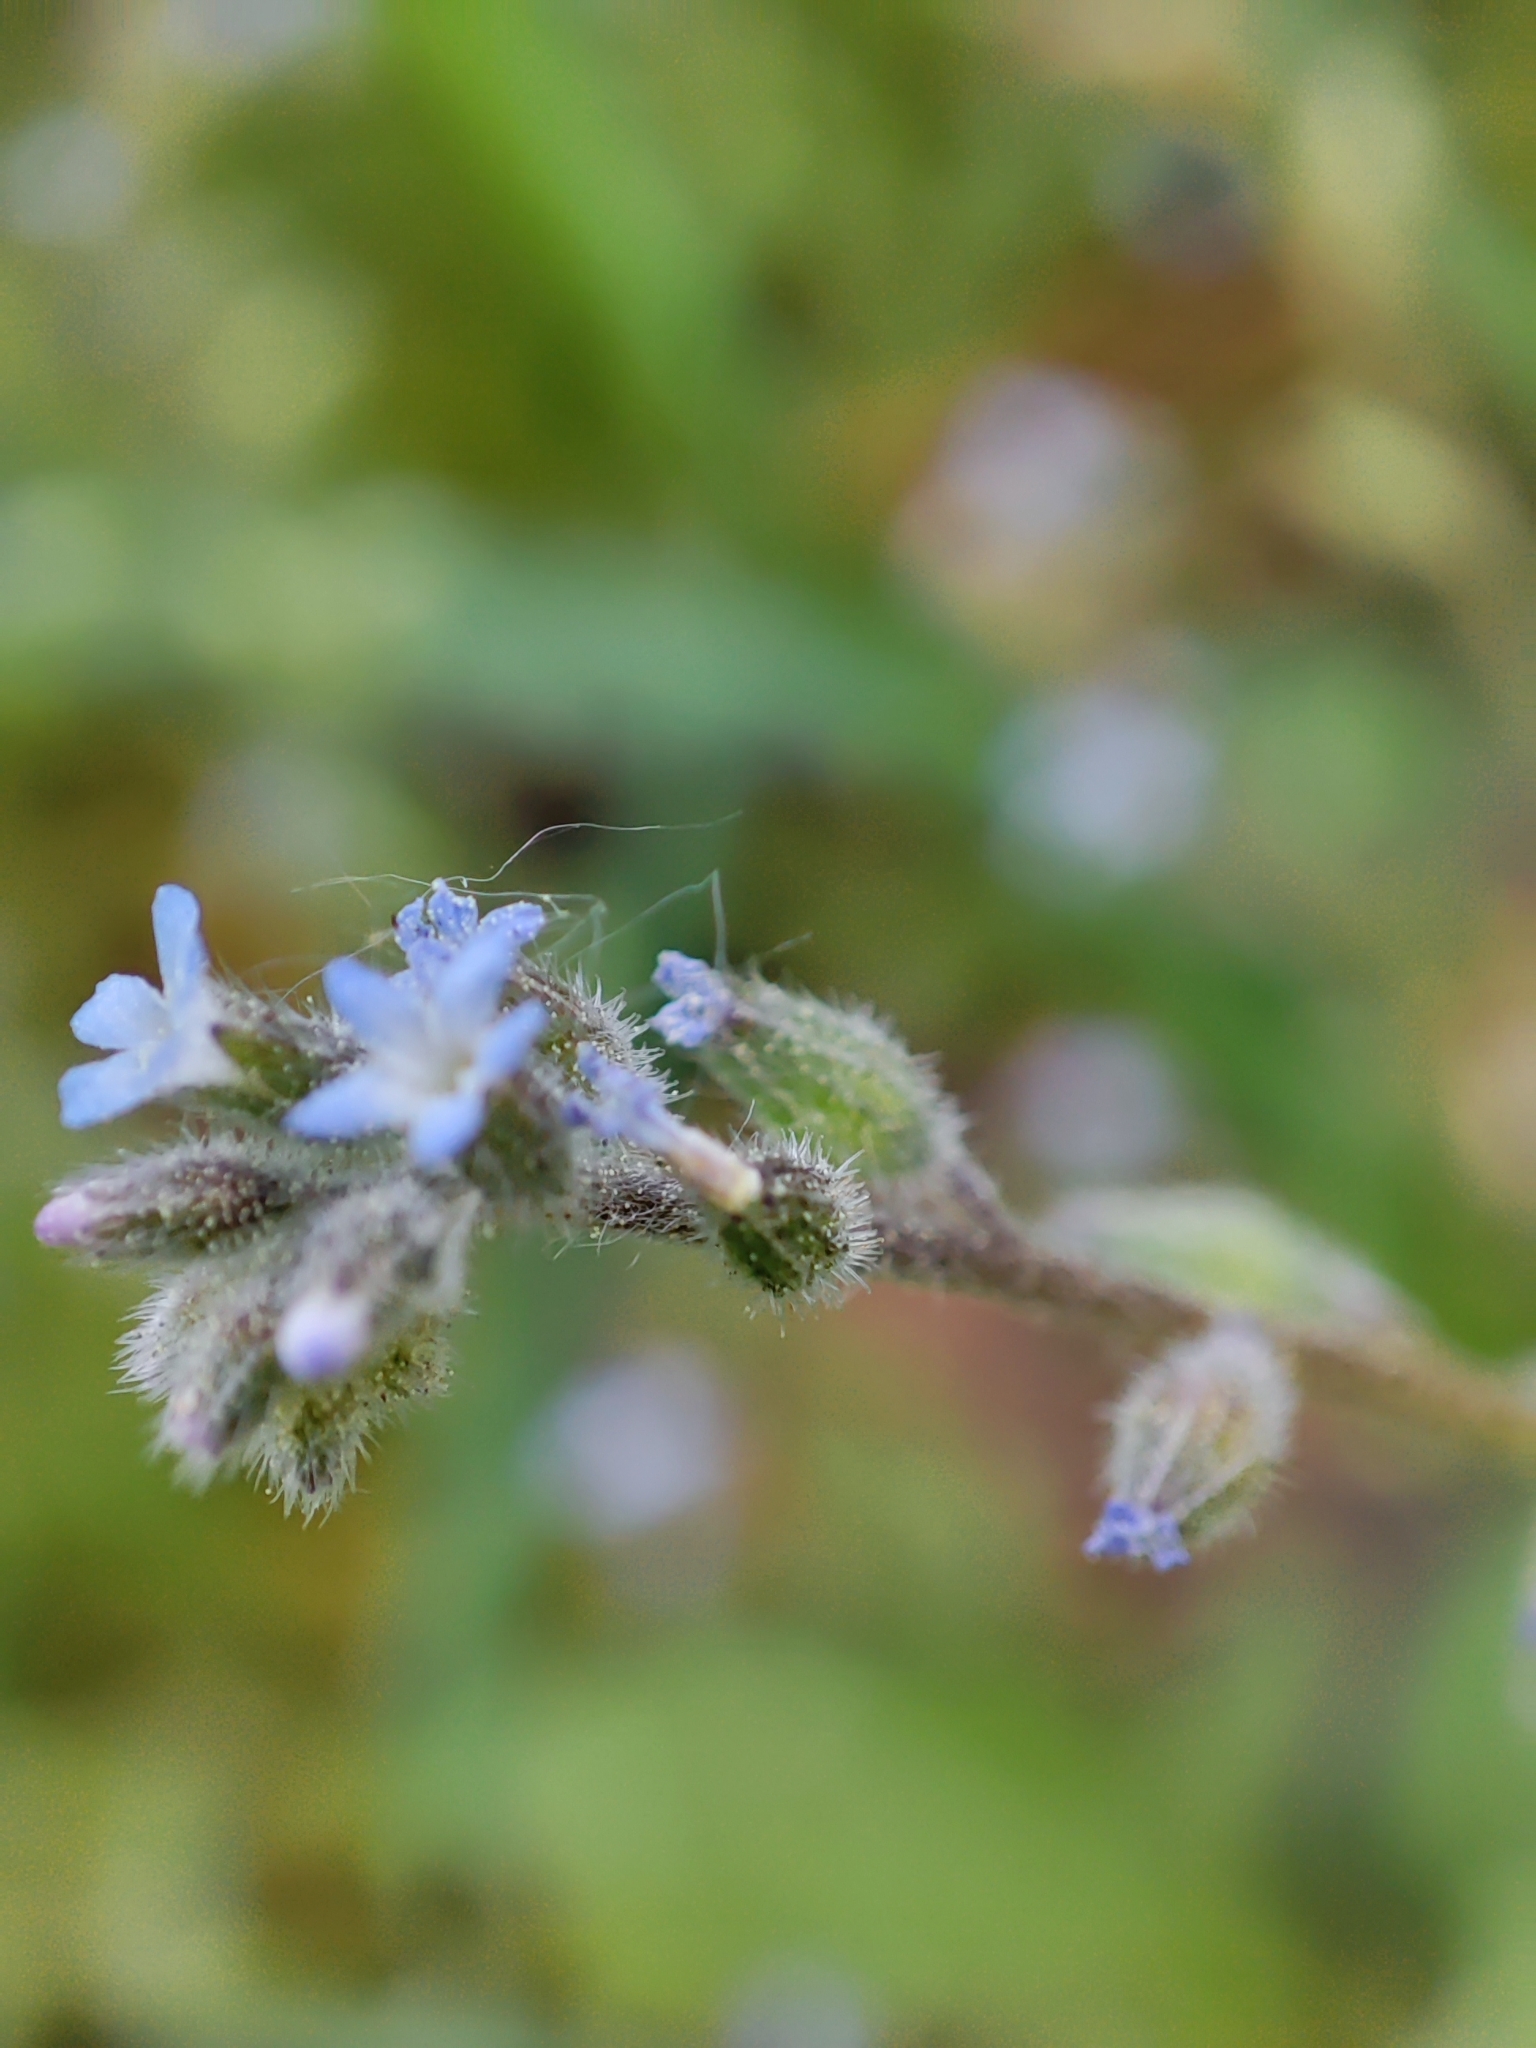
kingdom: Plantae
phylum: Tracheophyta
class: Magnoliopsida
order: Boraginales
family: Boraginaceae
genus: Myosotis
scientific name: Myosotis stricta
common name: Strict forget-me-not
